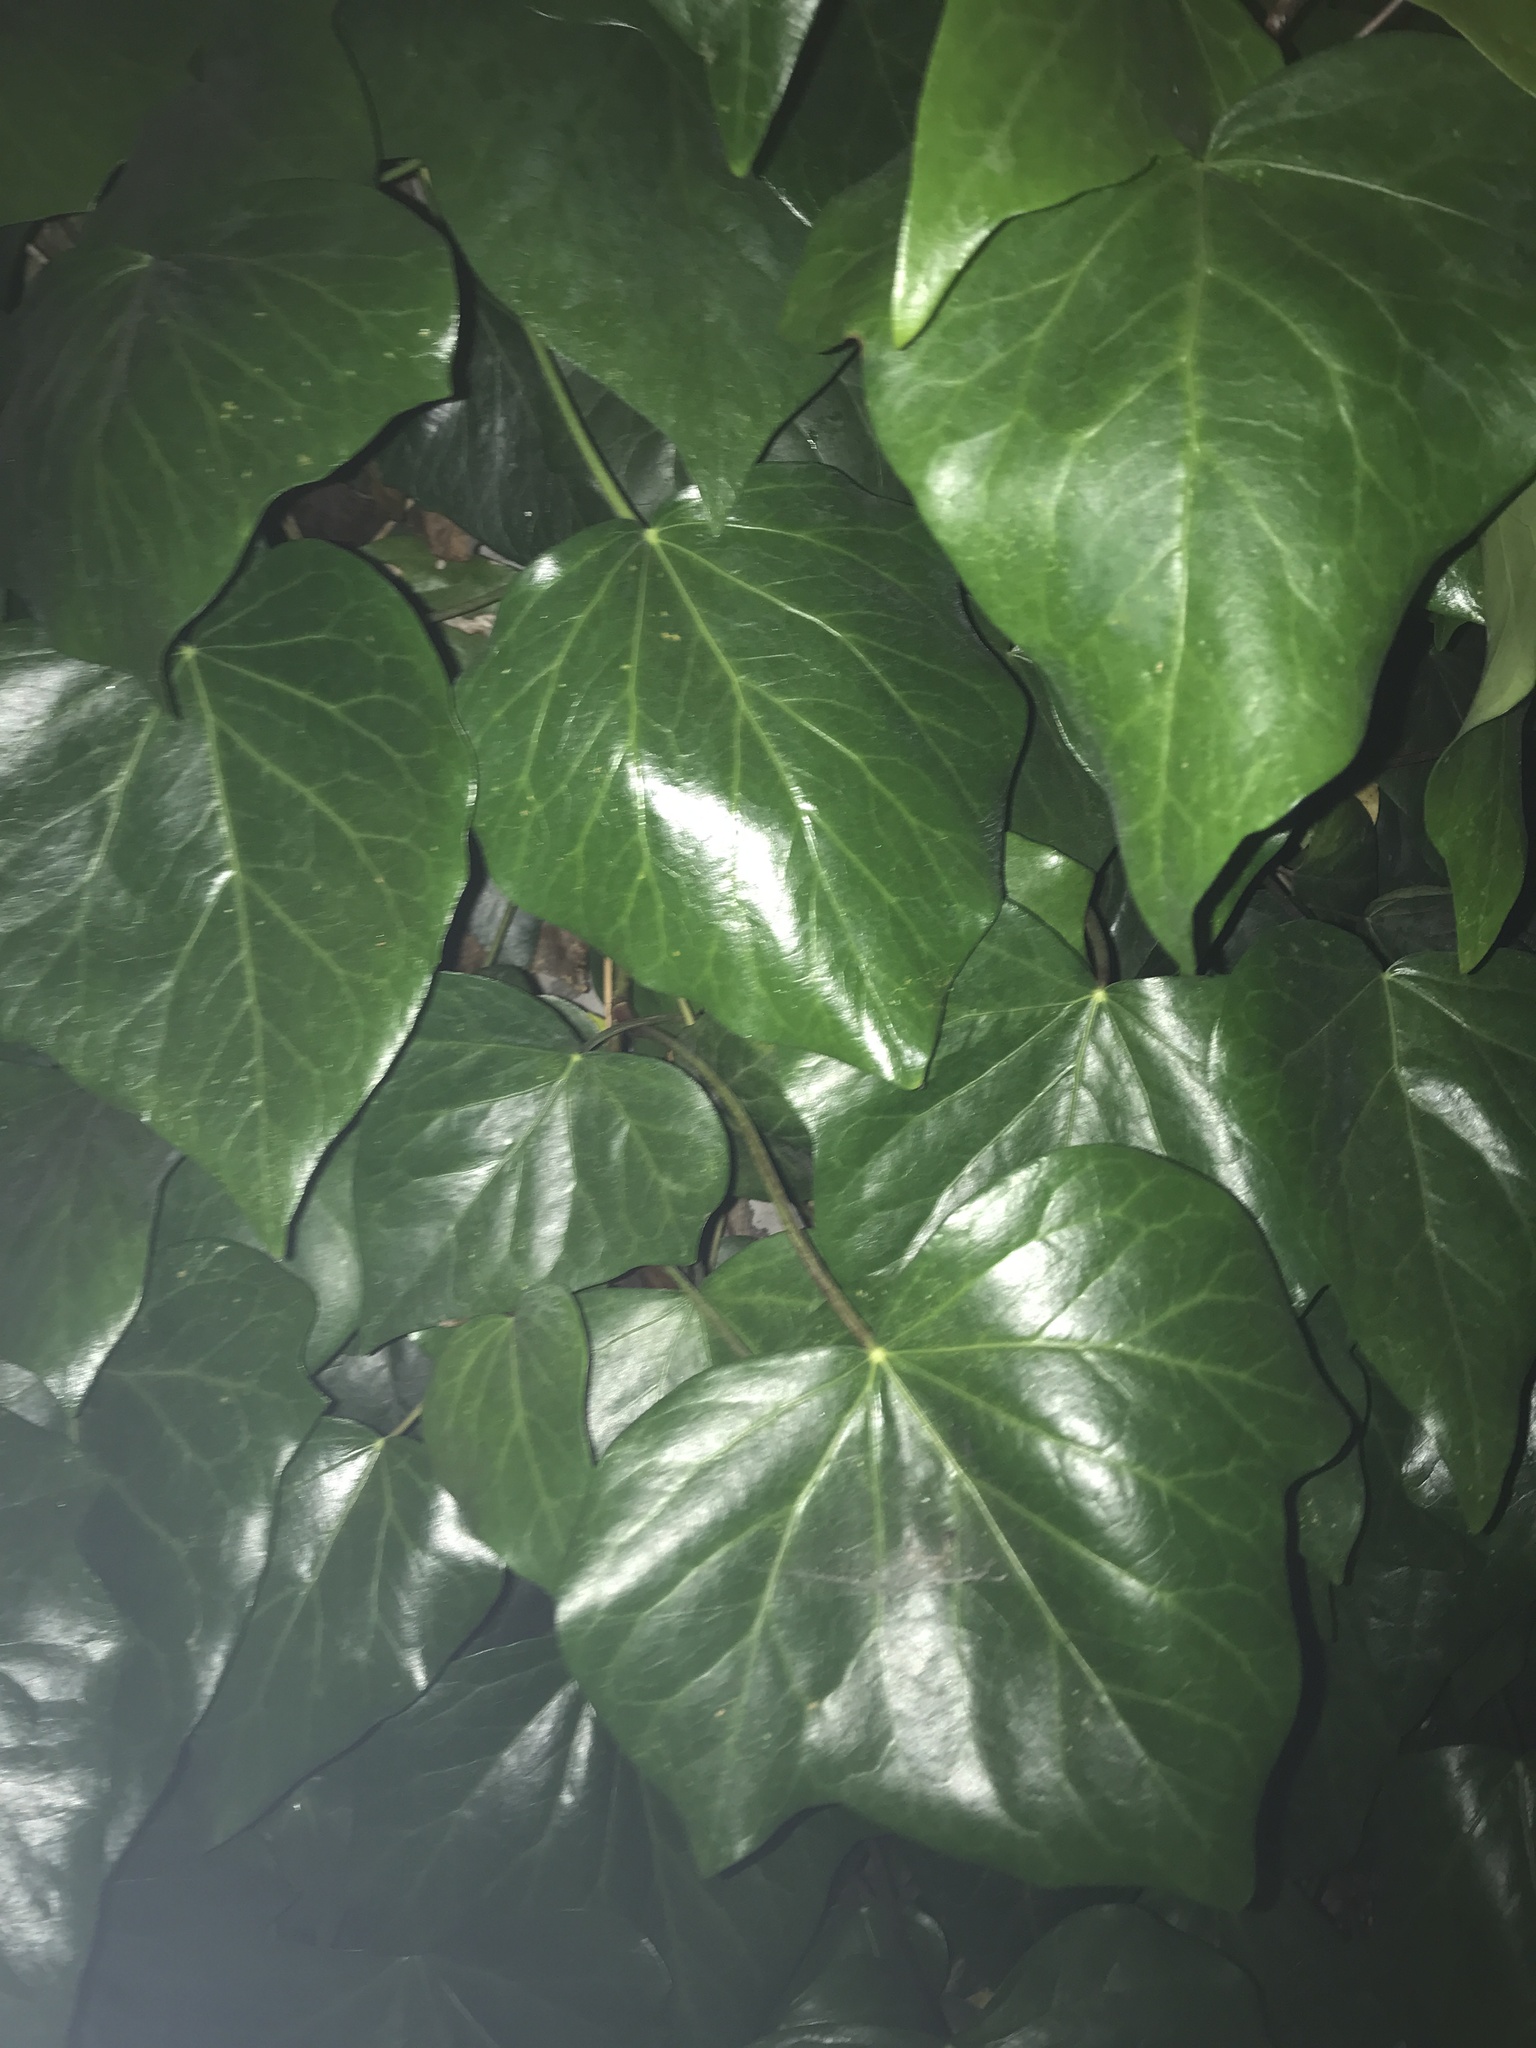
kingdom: Plantae
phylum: Tracheophyta
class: Magnoliopsida
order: Apiales
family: Araliaceae
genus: Hedera
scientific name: Hedera canariensis
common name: Madeira ivy
